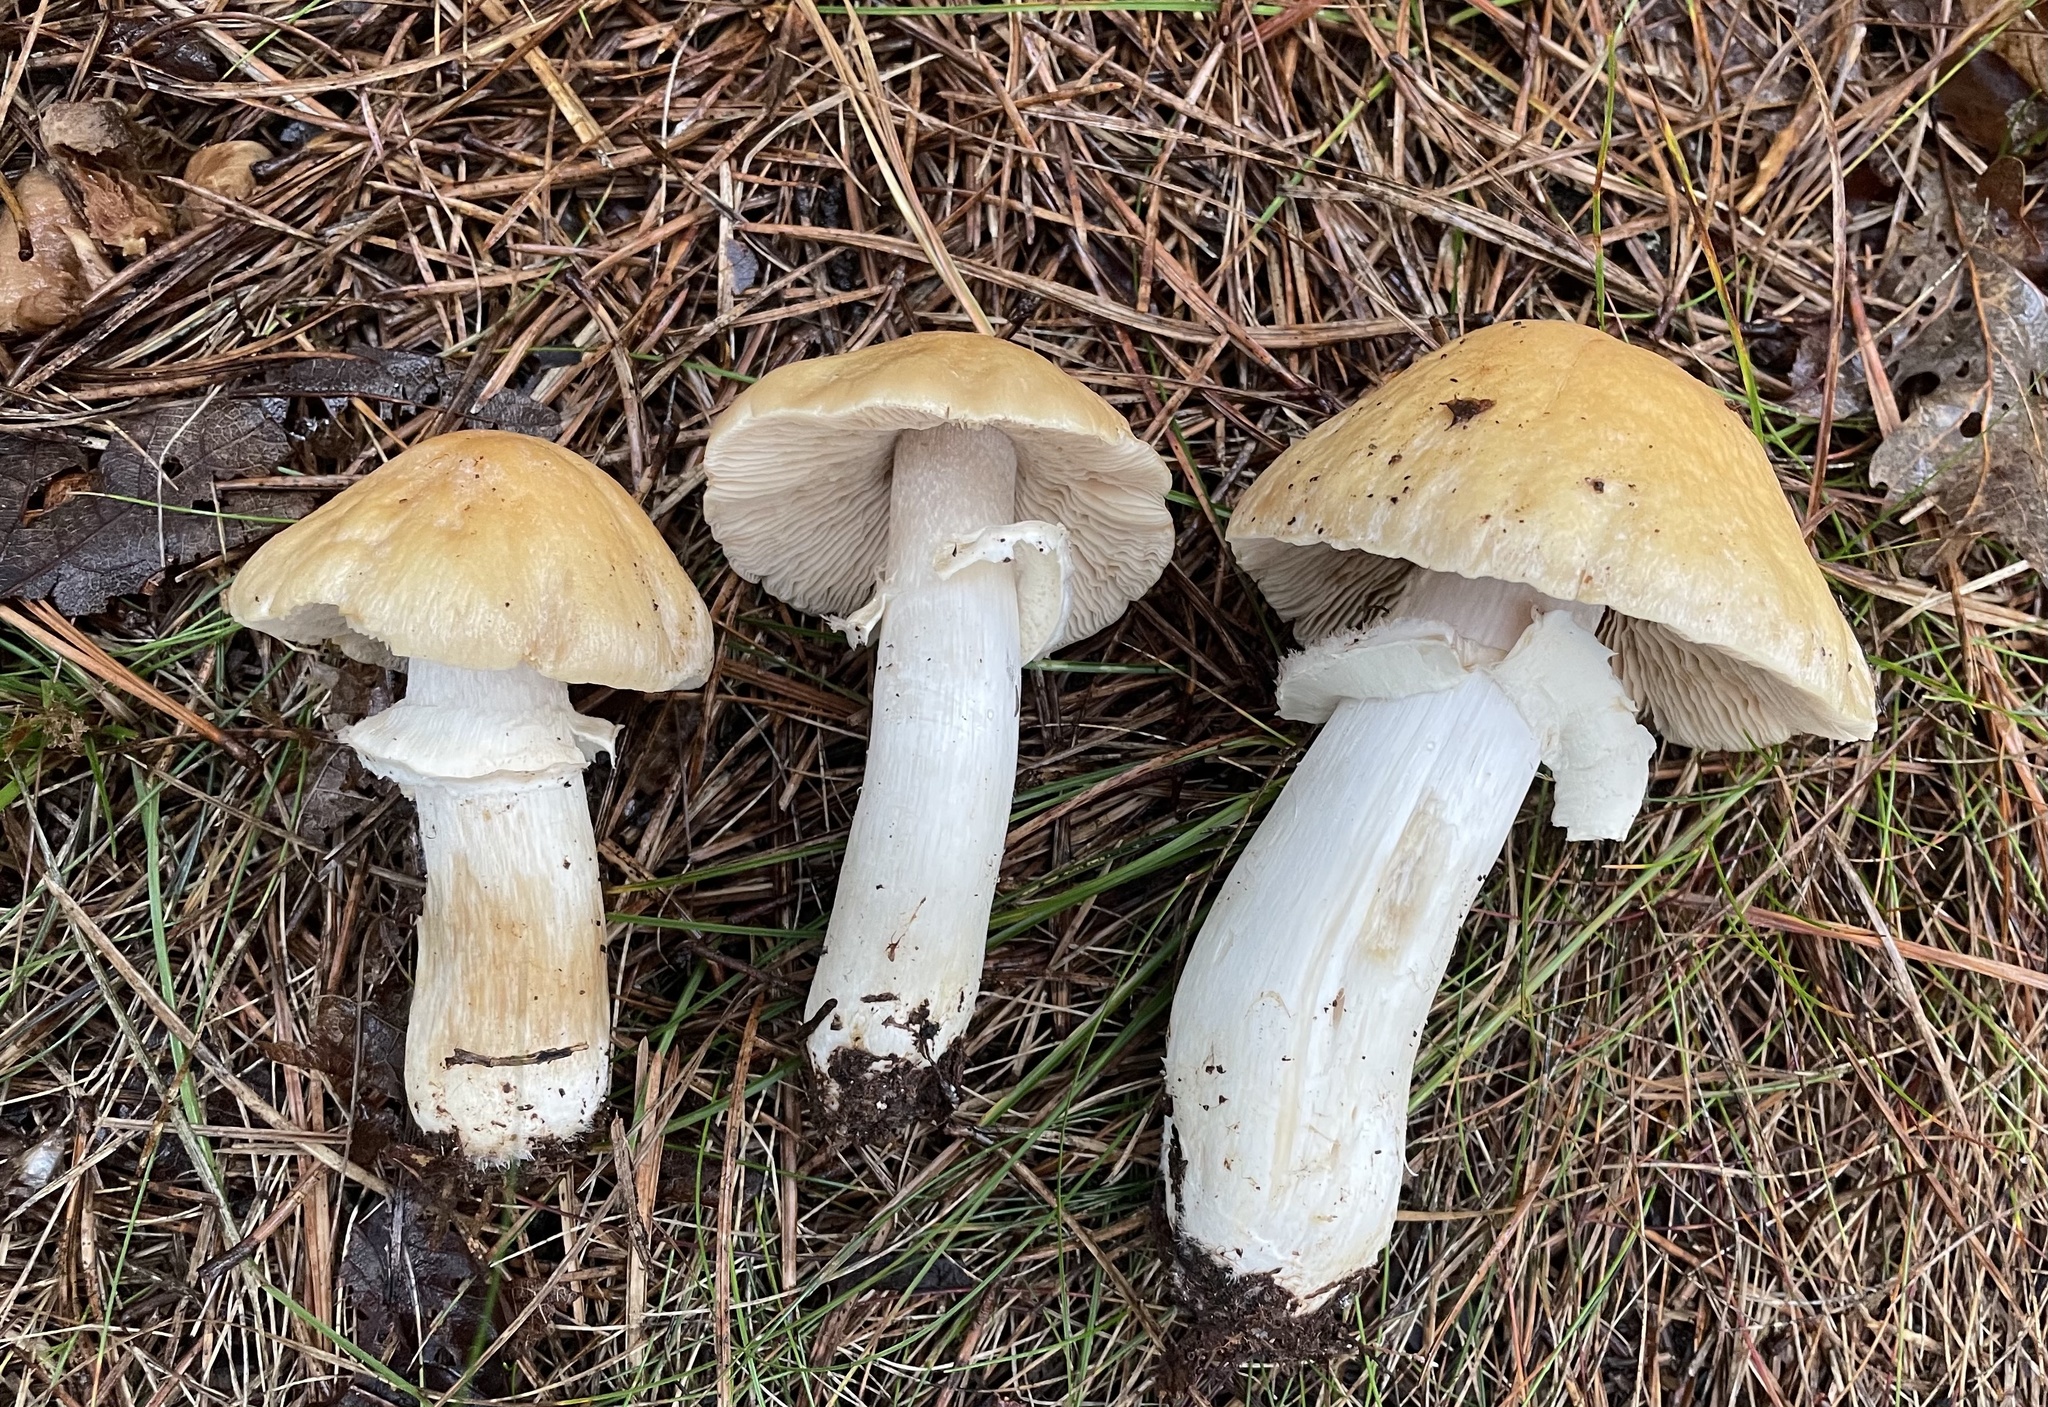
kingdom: Fungi
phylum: Basidiomycota
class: Agaricomycetes
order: Agaricales
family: Cortinariaceae
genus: Cortinarius
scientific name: Cortinarius caperatus
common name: The gypsy
